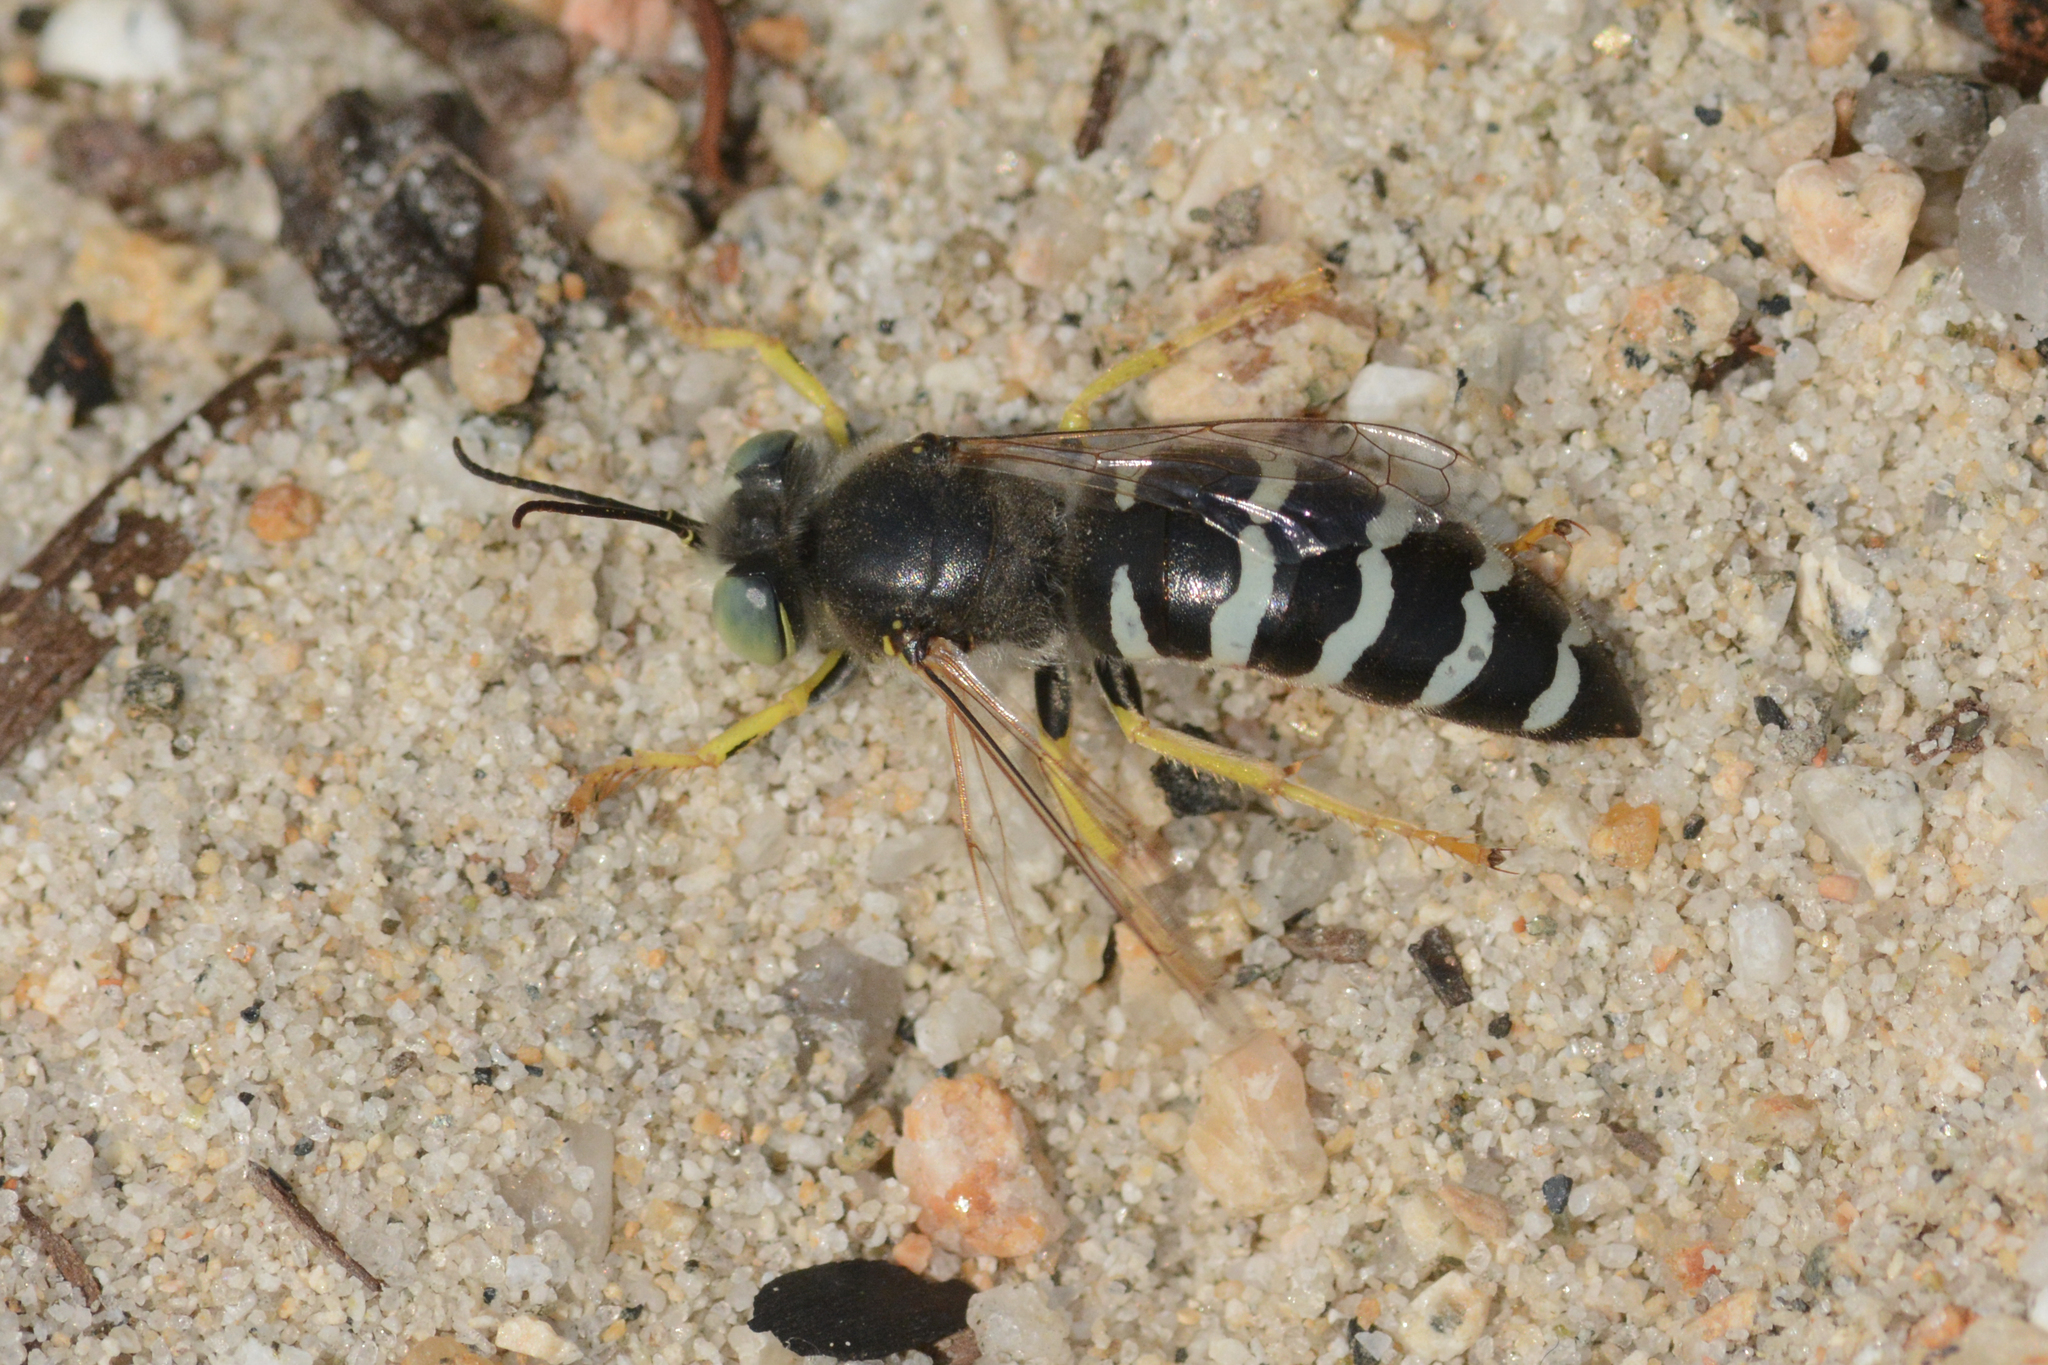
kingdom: Animalia
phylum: Arthropoda
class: Insecta
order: Hymenoptera
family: Crabronidae
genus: Bembix
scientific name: Bembix americana
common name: American sand wasp
